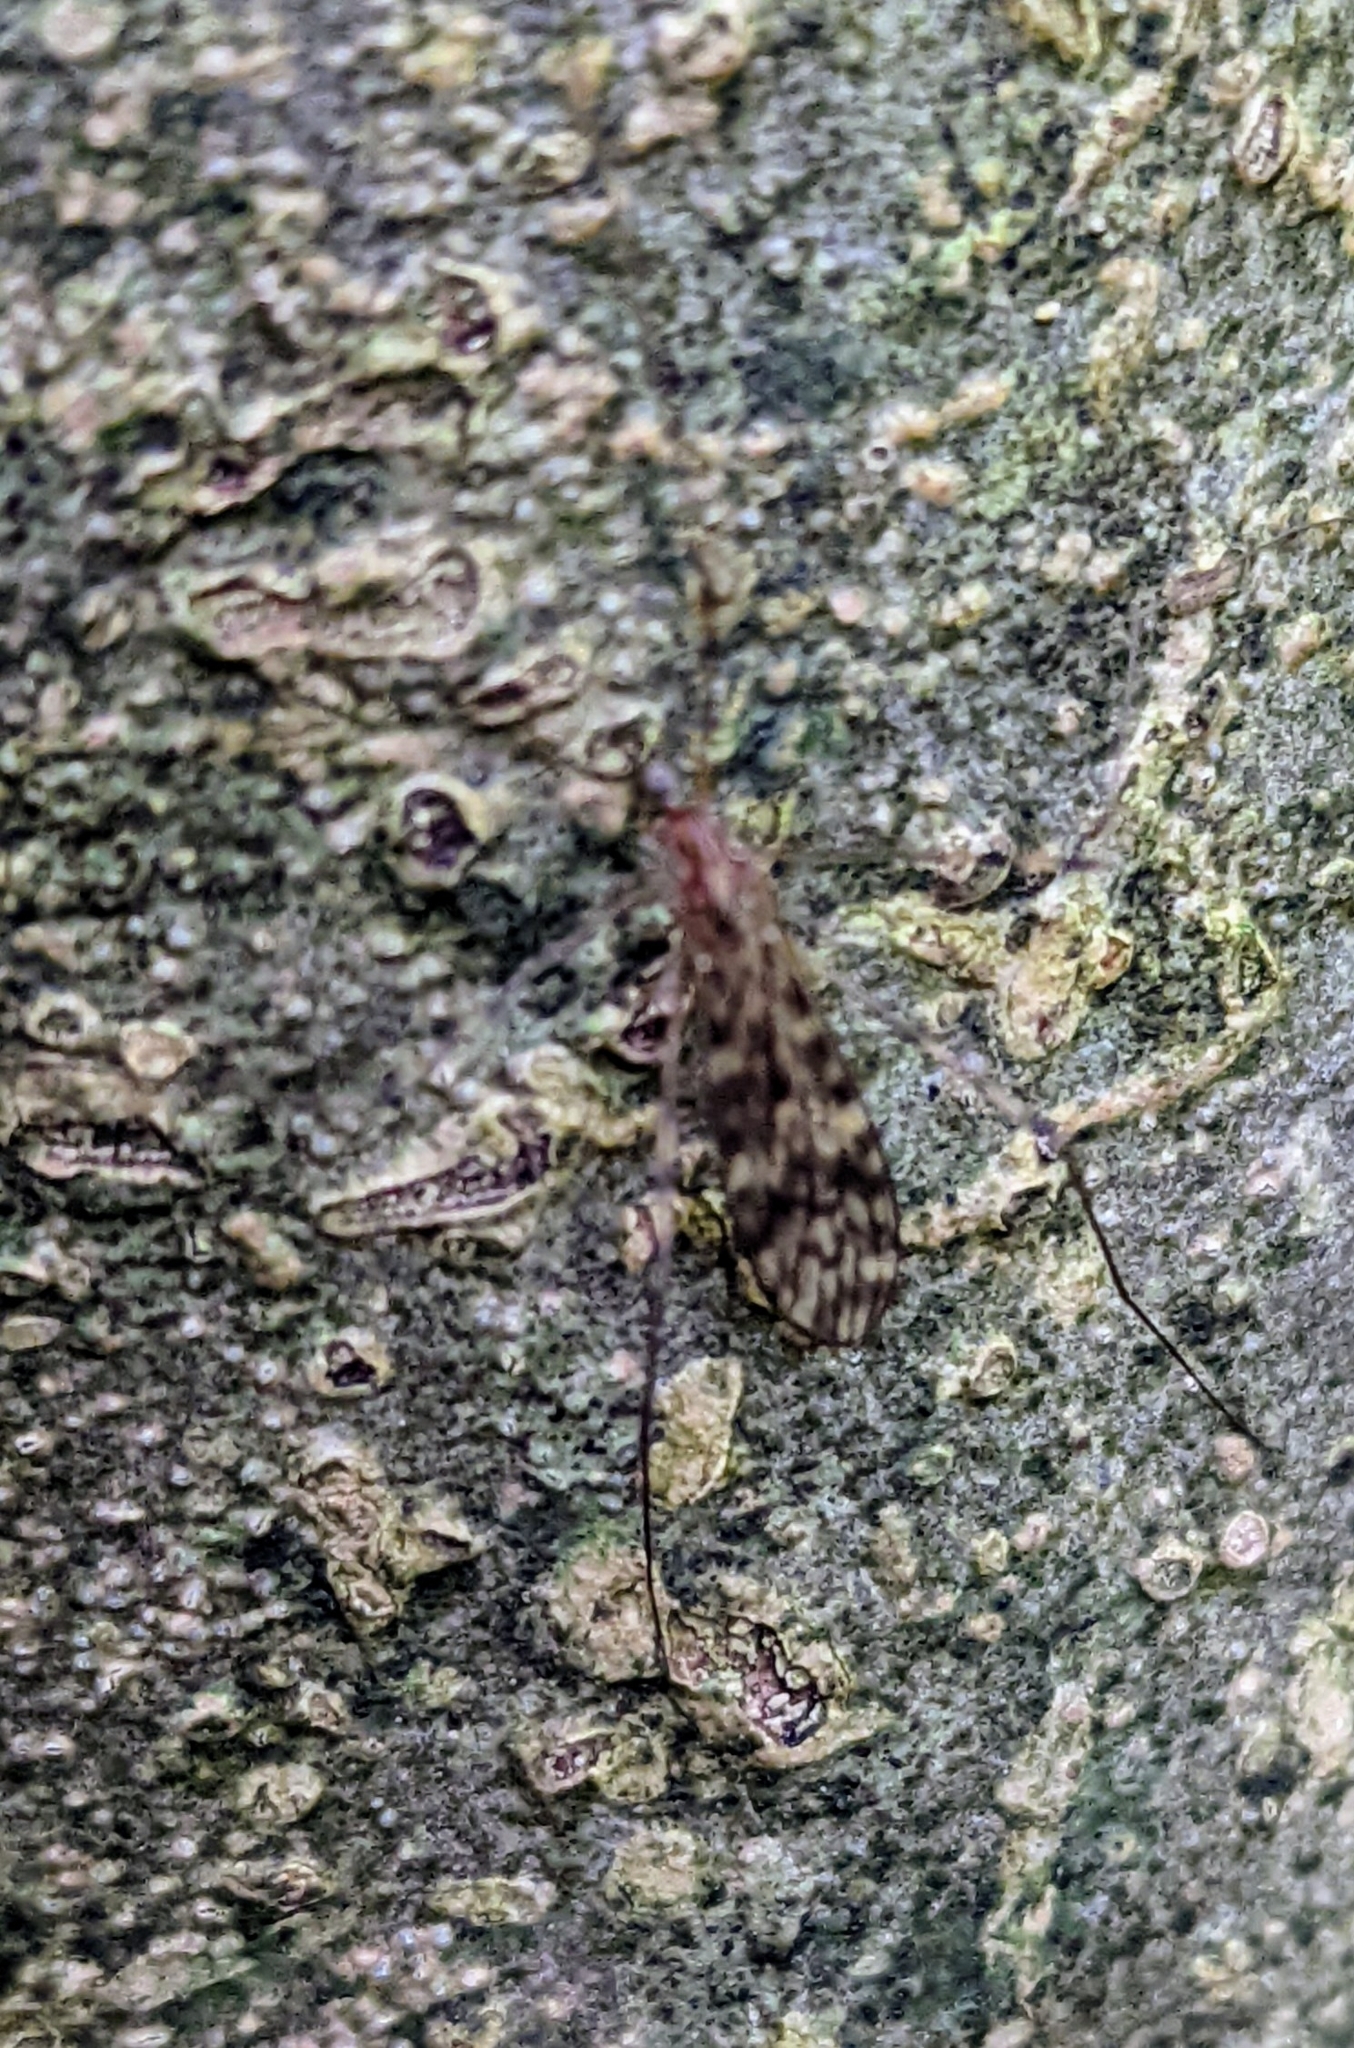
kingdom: Animalia
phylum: Arthropoda
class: Insecta
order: Diptera
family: Limoniidae
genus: Limonia
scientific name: Limonia nubeculosa
